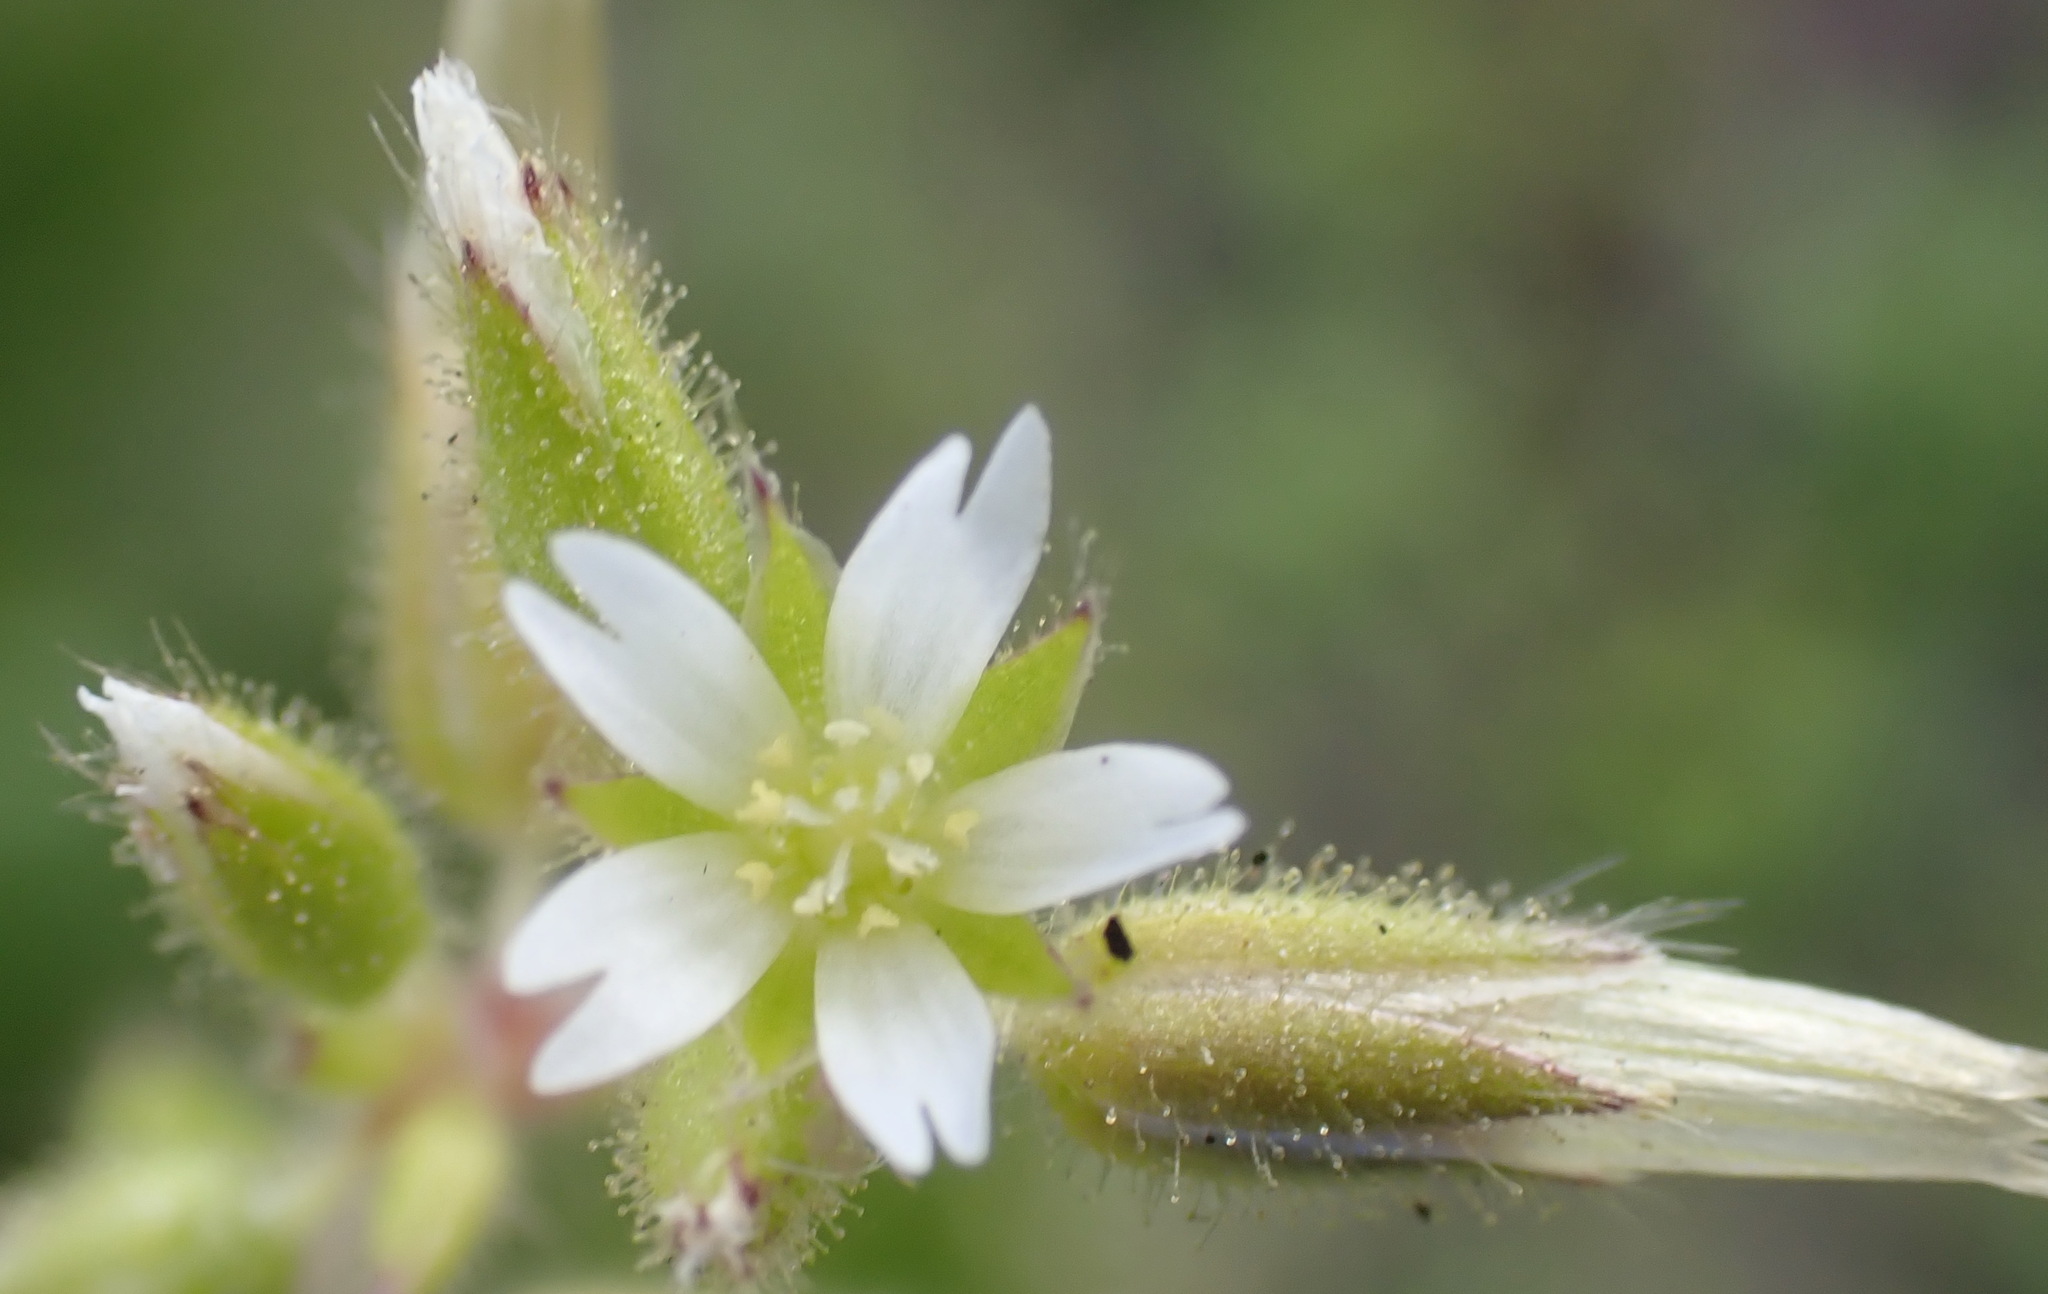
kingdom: Plantae
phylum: Tracheophyta
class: Magnoliopsida
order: Caryophyllales
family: Caryophyllaceae
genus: Cerastium
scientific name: Cerastium capense
